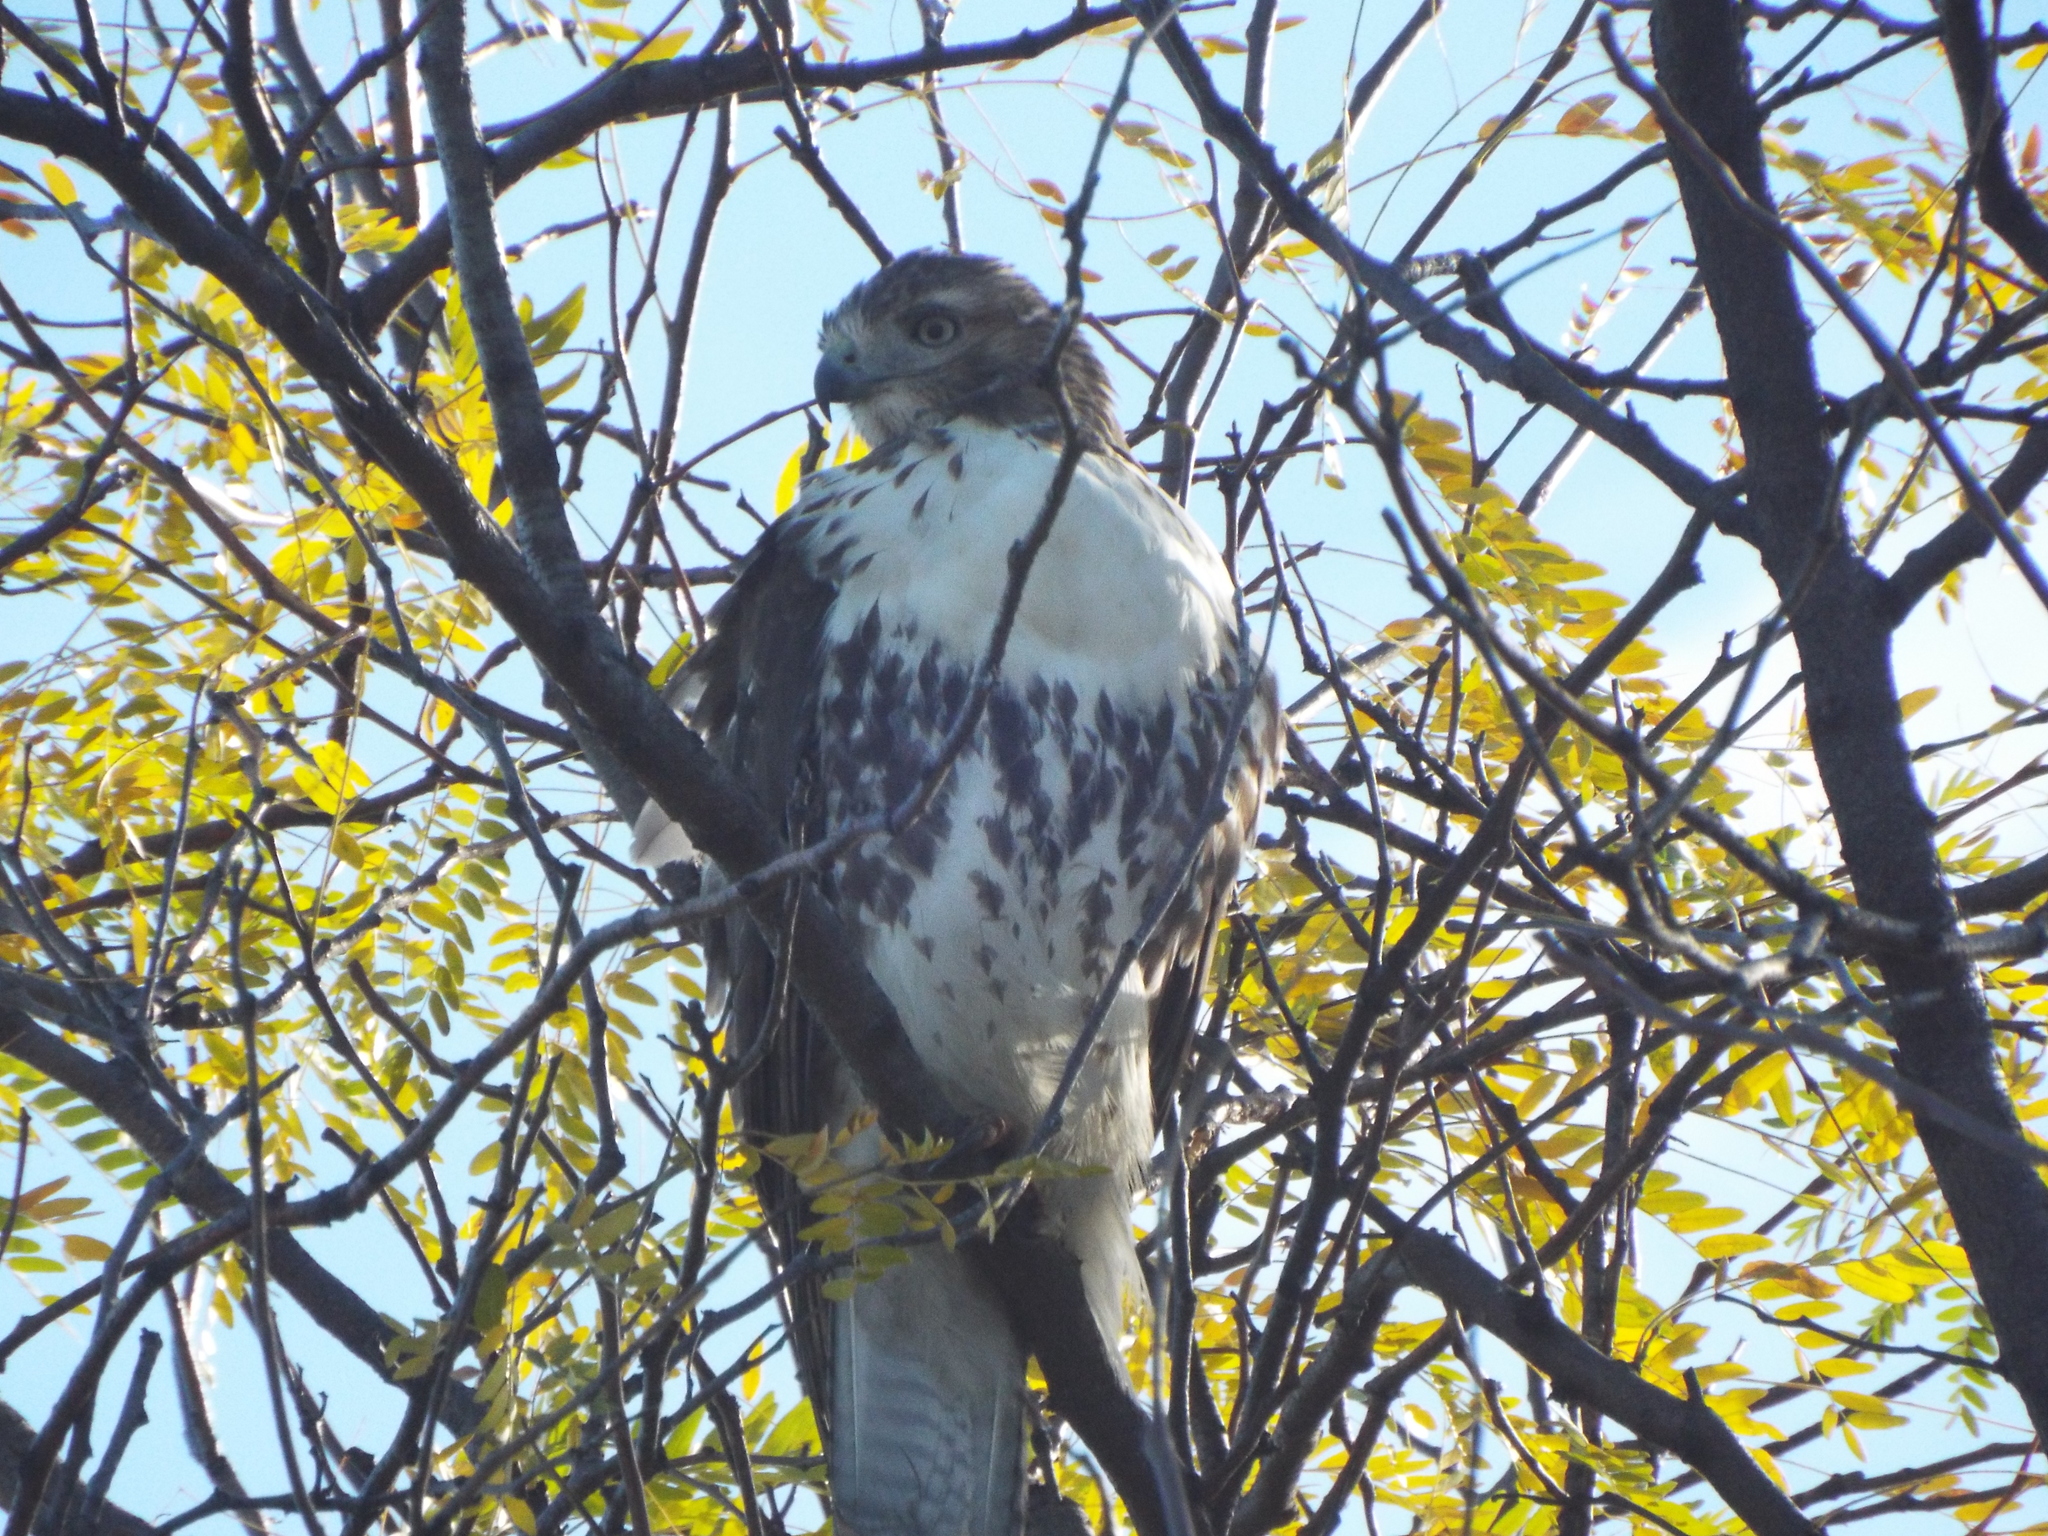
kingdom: Animalia
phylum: Chordata
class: Aves
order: Accipitriformes
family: Accipitridae
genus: Buteo
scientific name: Buteo jamaicensis
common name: Red-tailed hawk
